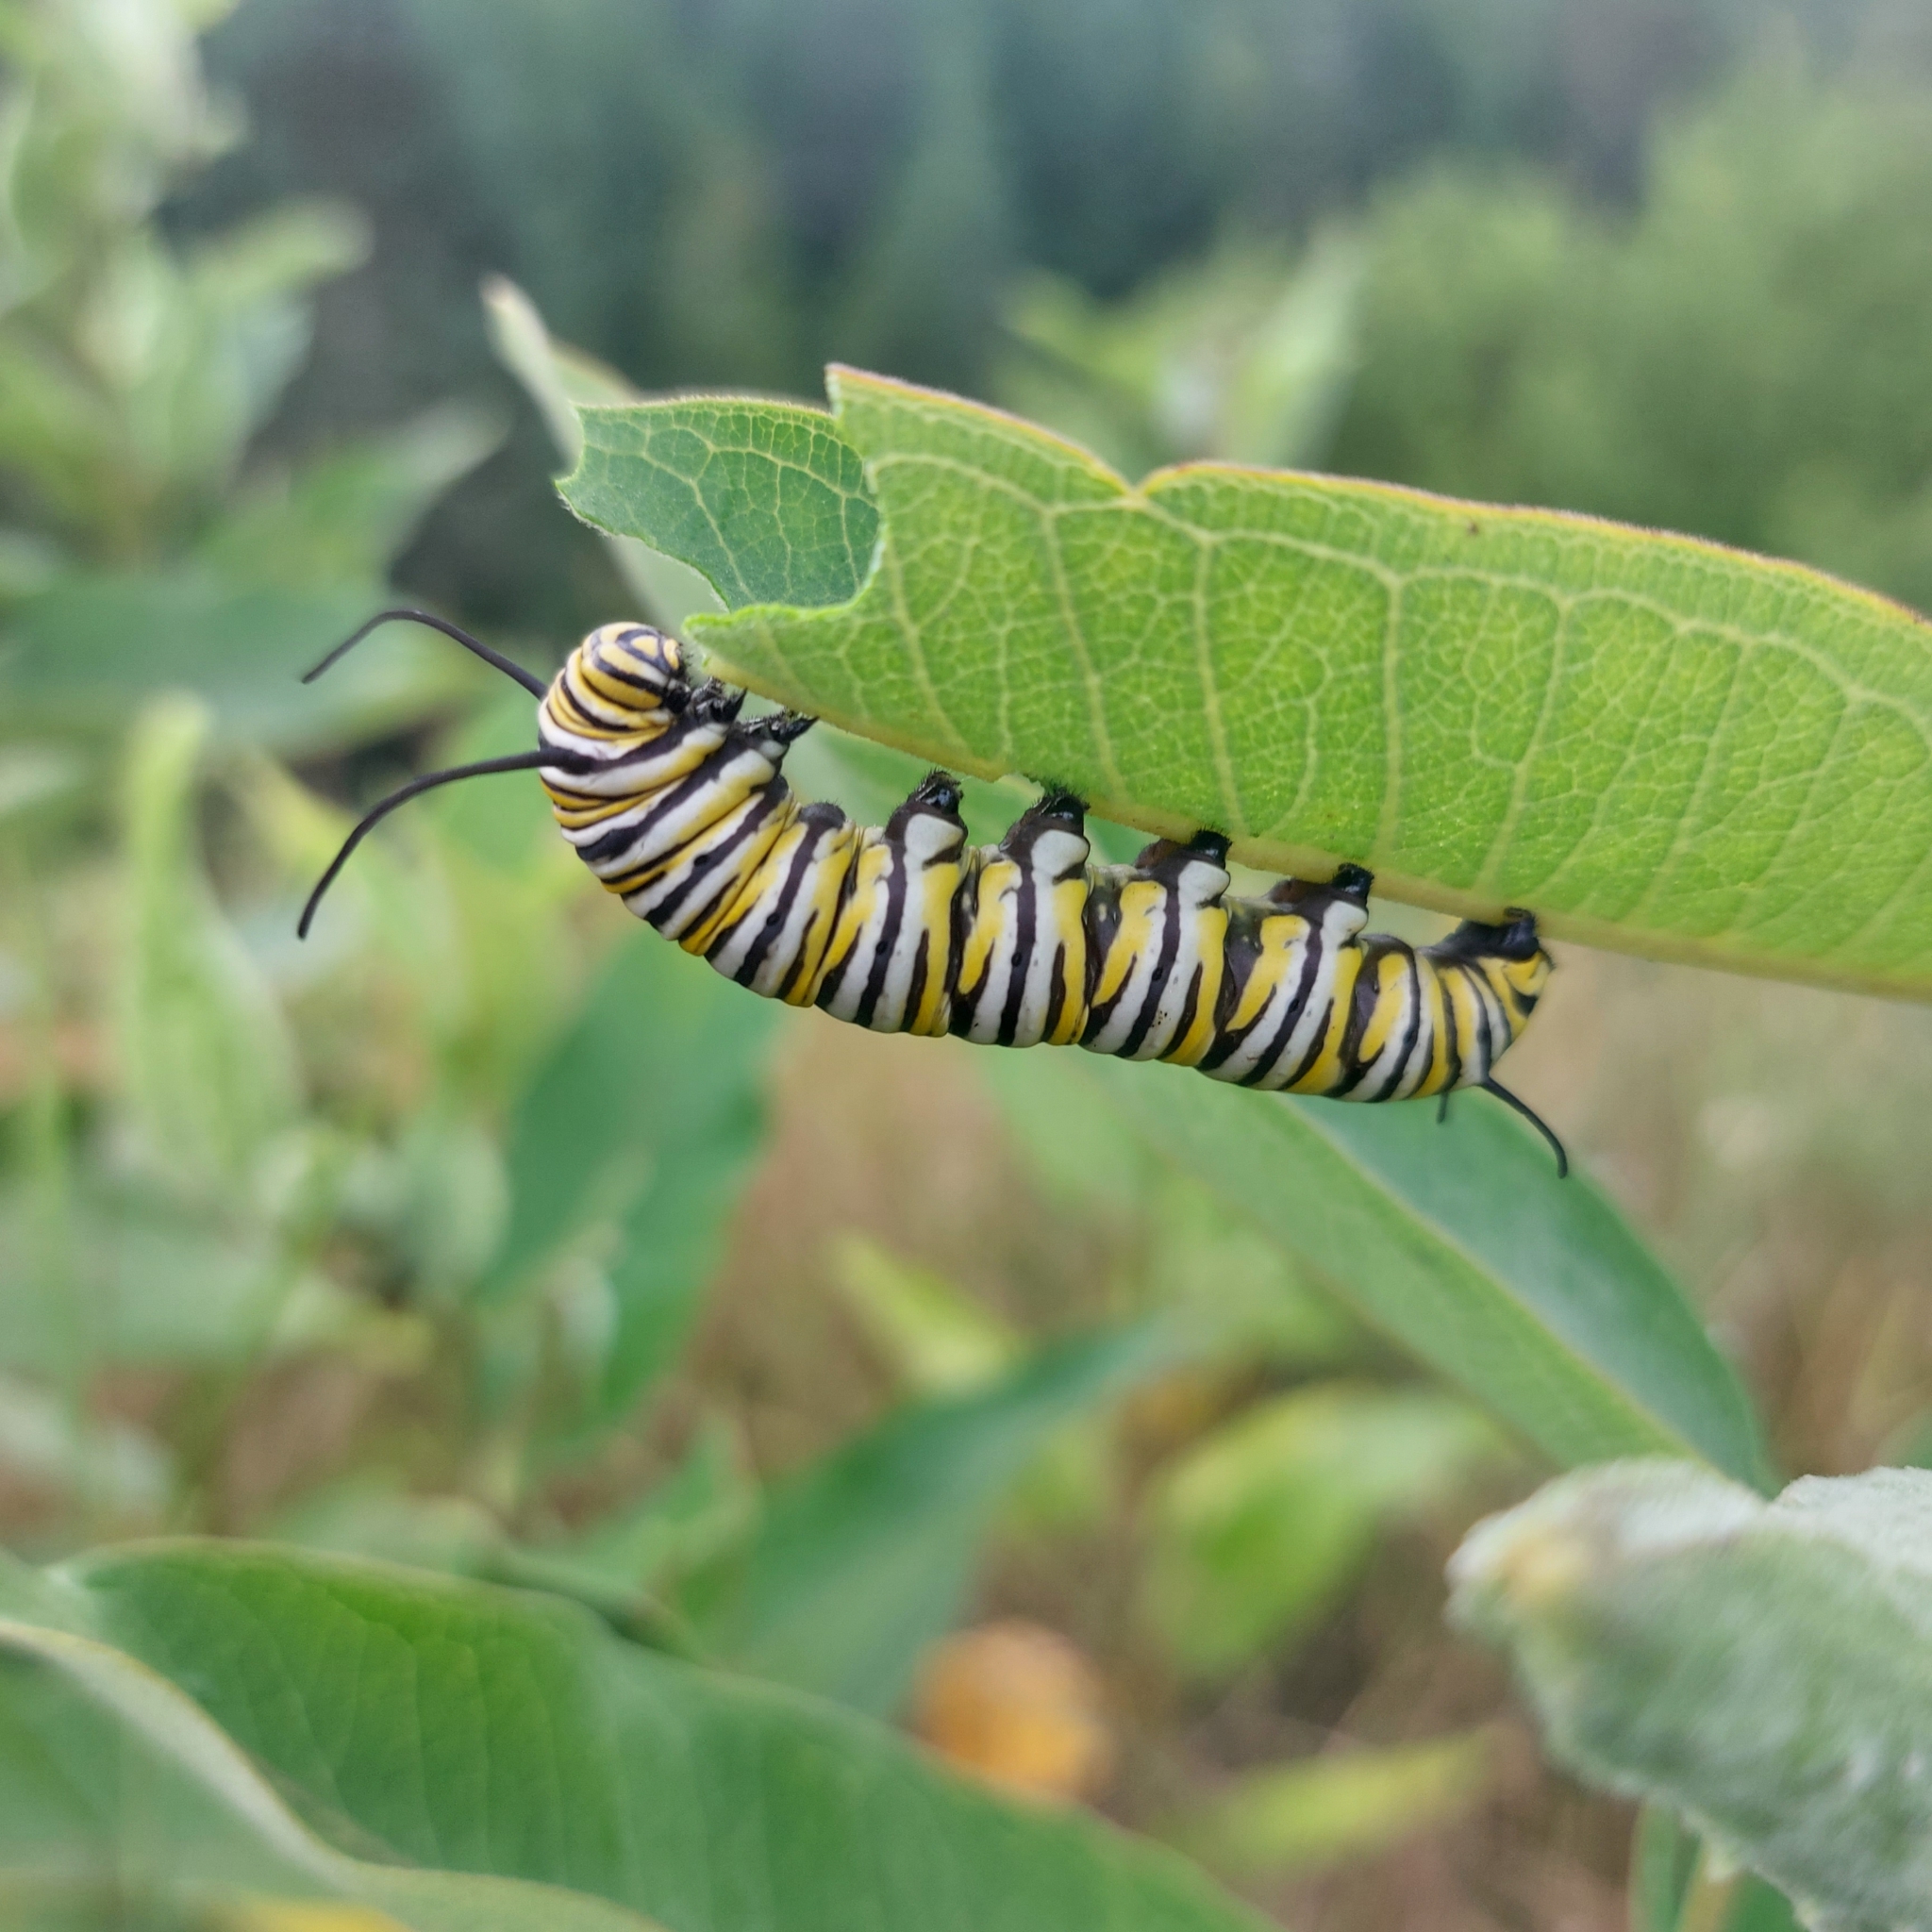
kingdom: Animalia
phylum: Arthropoda
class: Insecta
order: Lepidoptera
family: Nymphalidae
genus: Danaus
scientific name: Danaus plexippus
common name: Monarch
